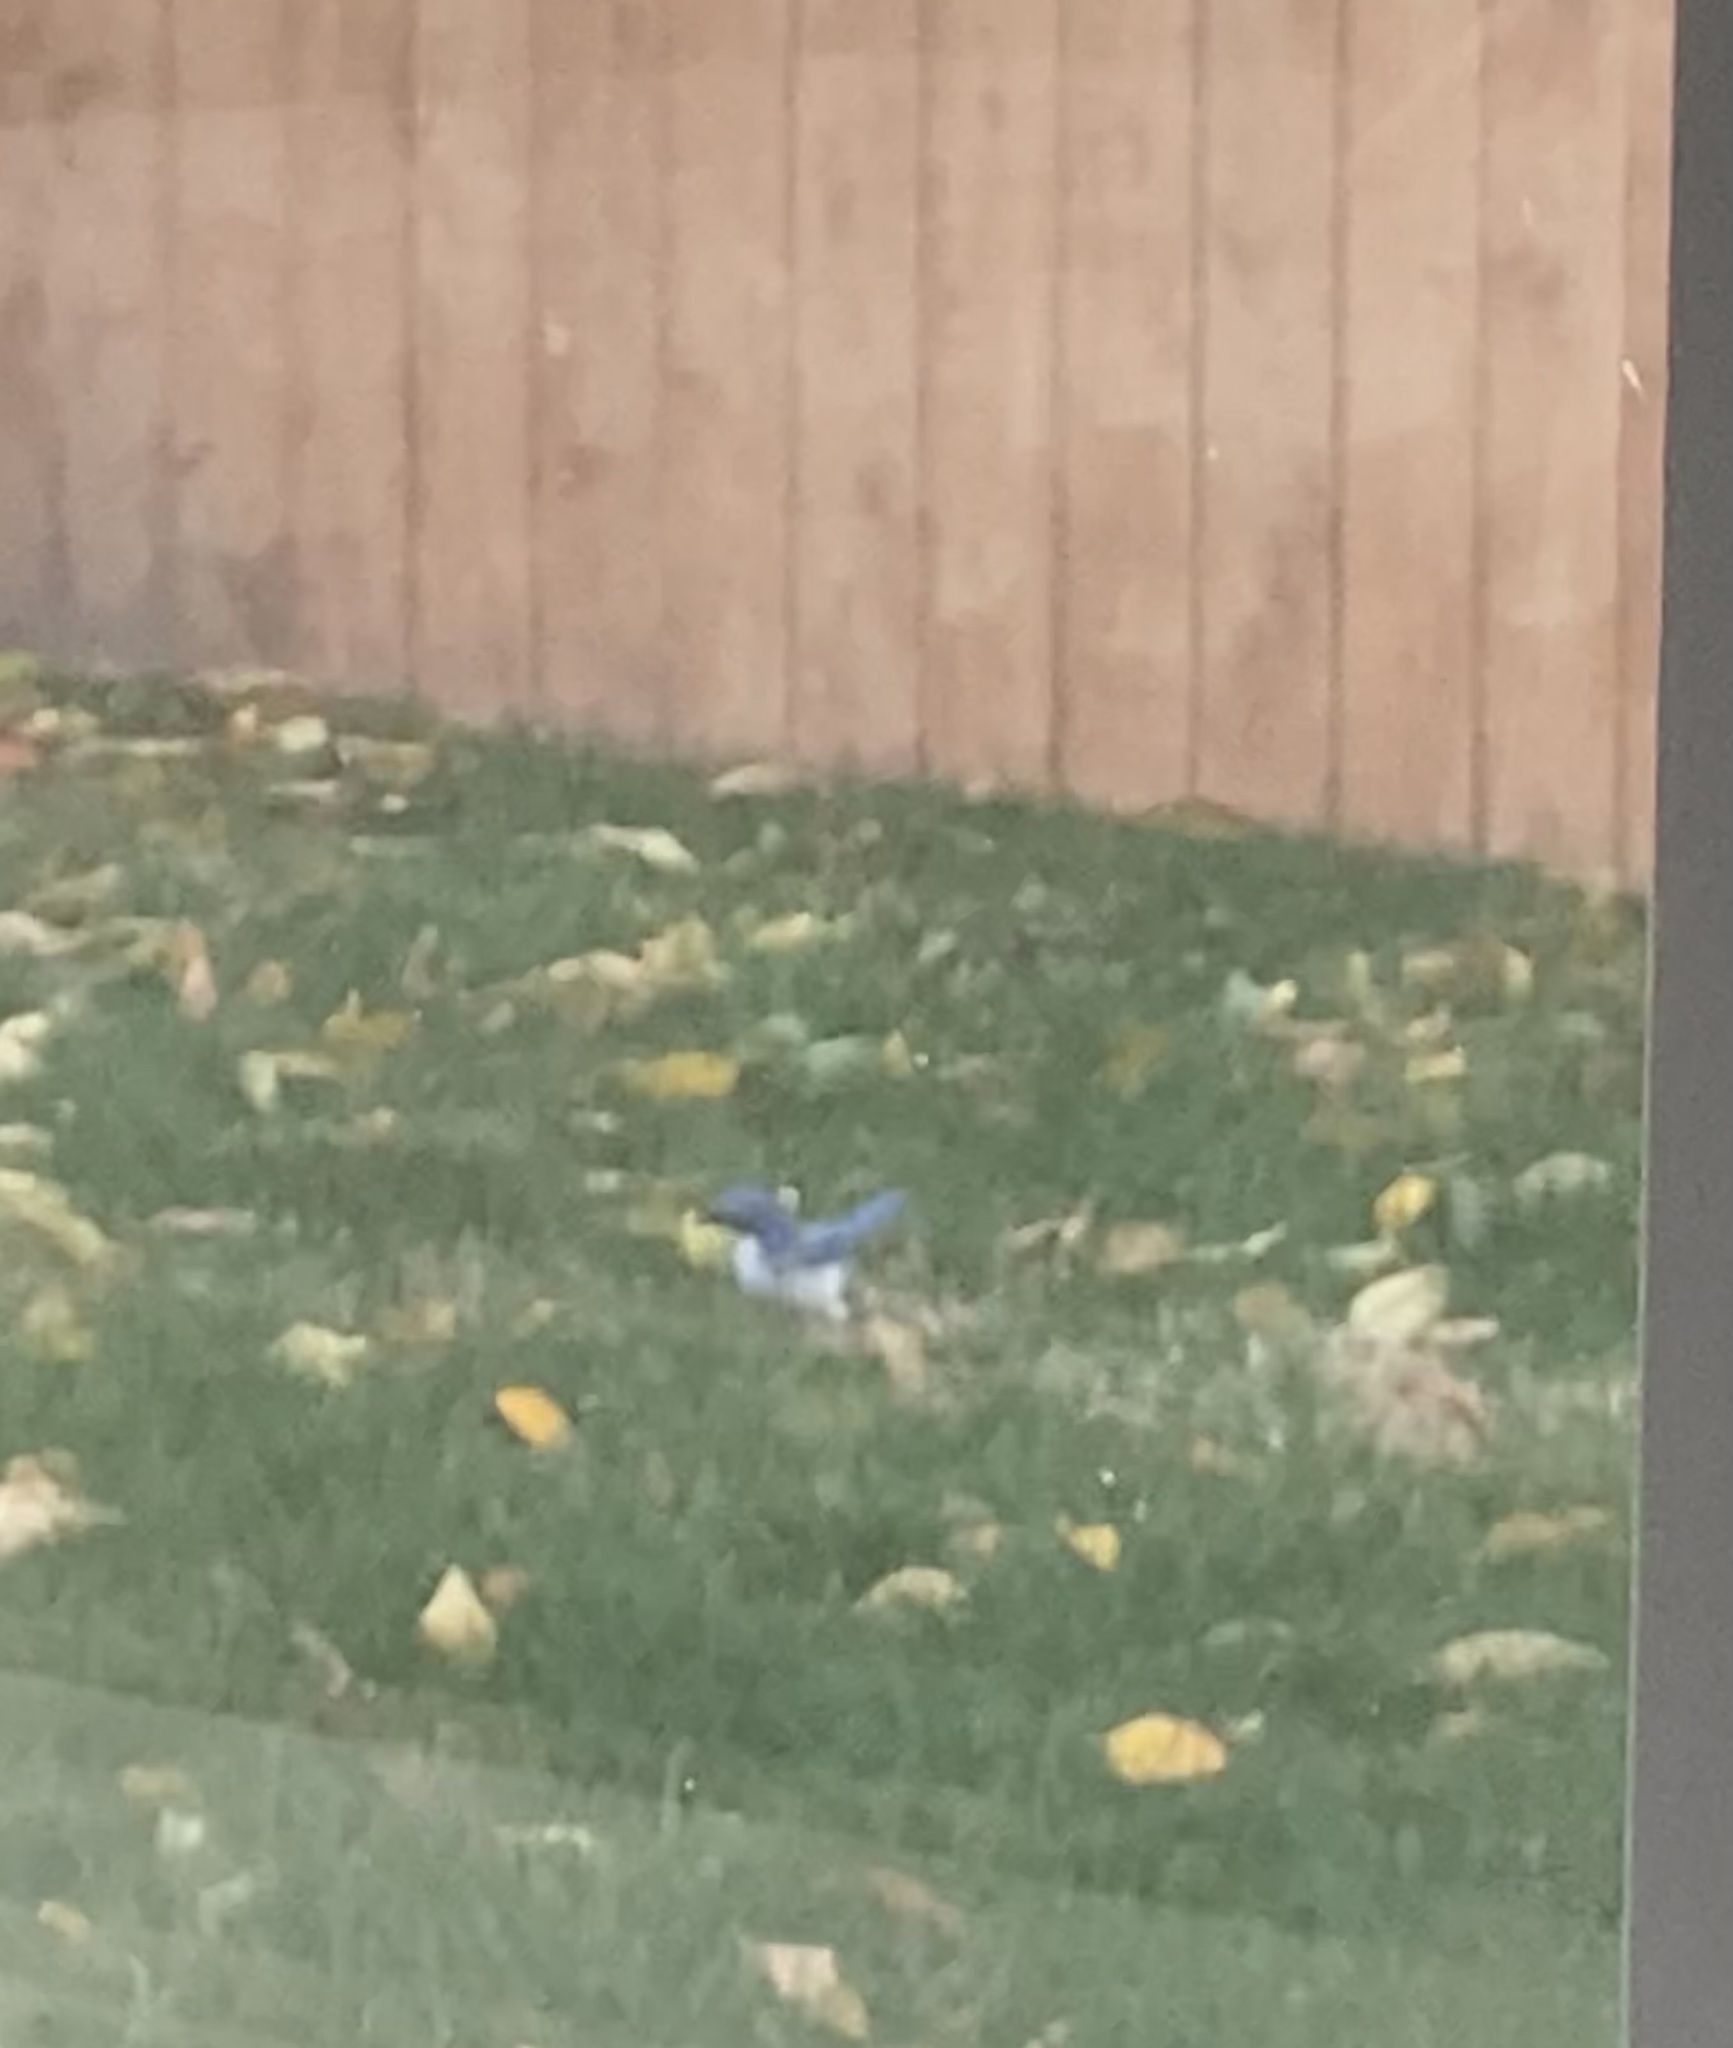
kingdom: Animalia
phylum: Chordata
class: Aves
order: Passeriformes
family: Corvidae
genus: Aphelocoma
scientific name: Aphelocoma californica
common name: California scrub-jay
